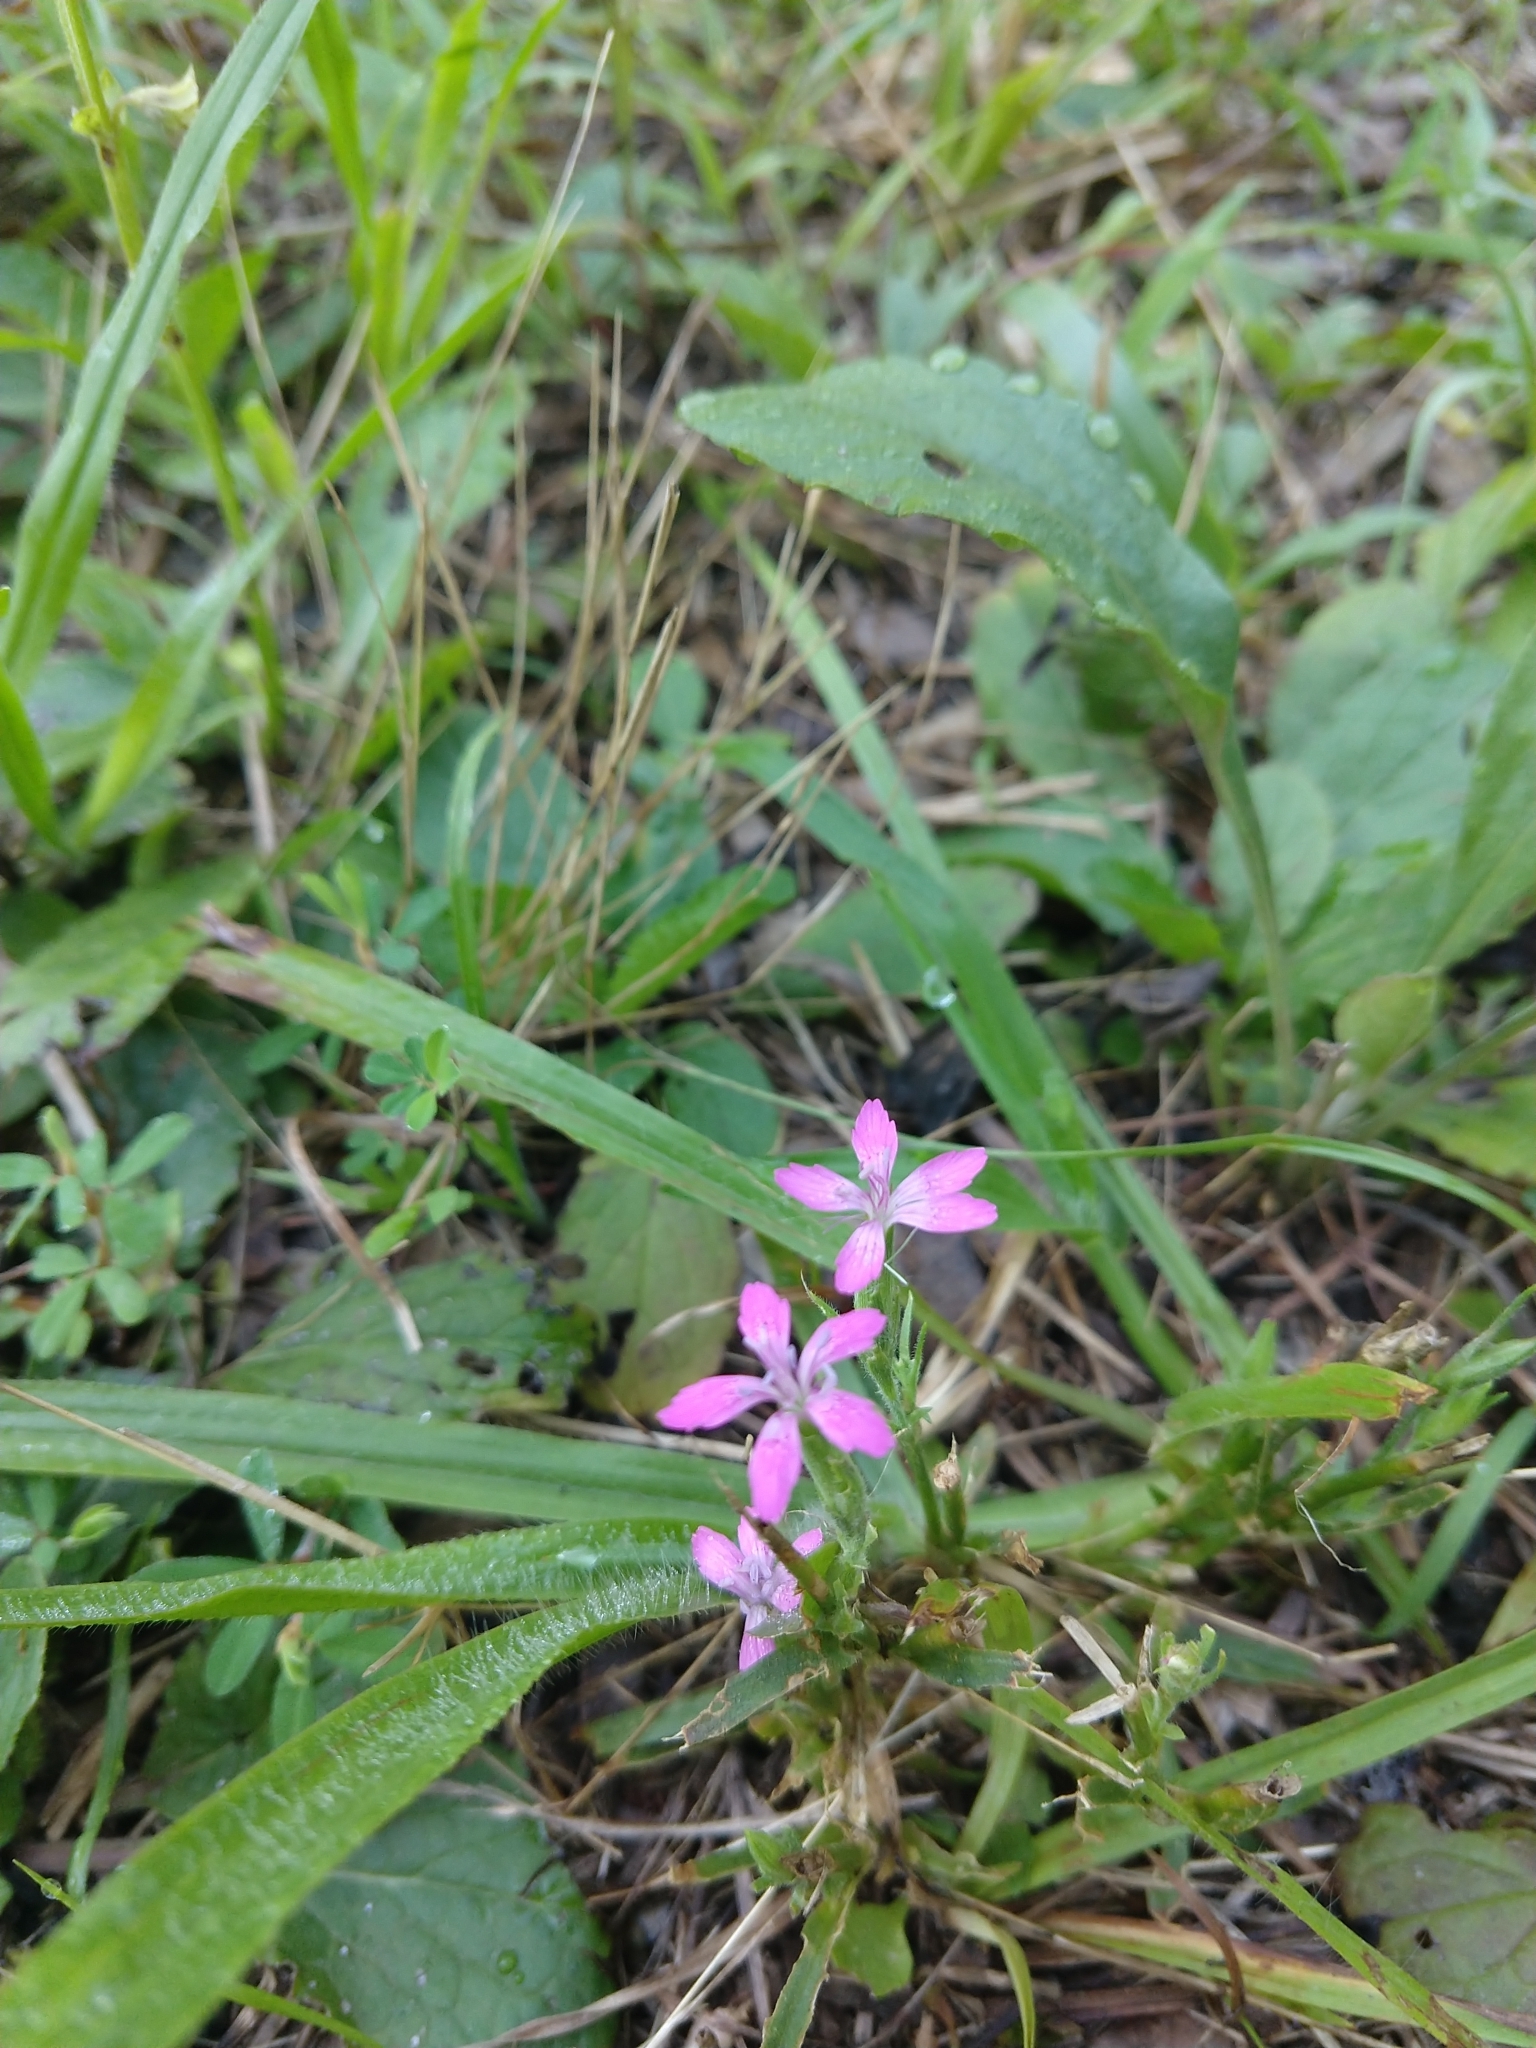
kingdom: Plantae
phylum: Tracheophyta
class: Magnoliopsida
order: Caryophyllales
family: Caryophyllaceae
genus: Dianthus
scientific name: Dianthus armeria
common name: Deptford pink
